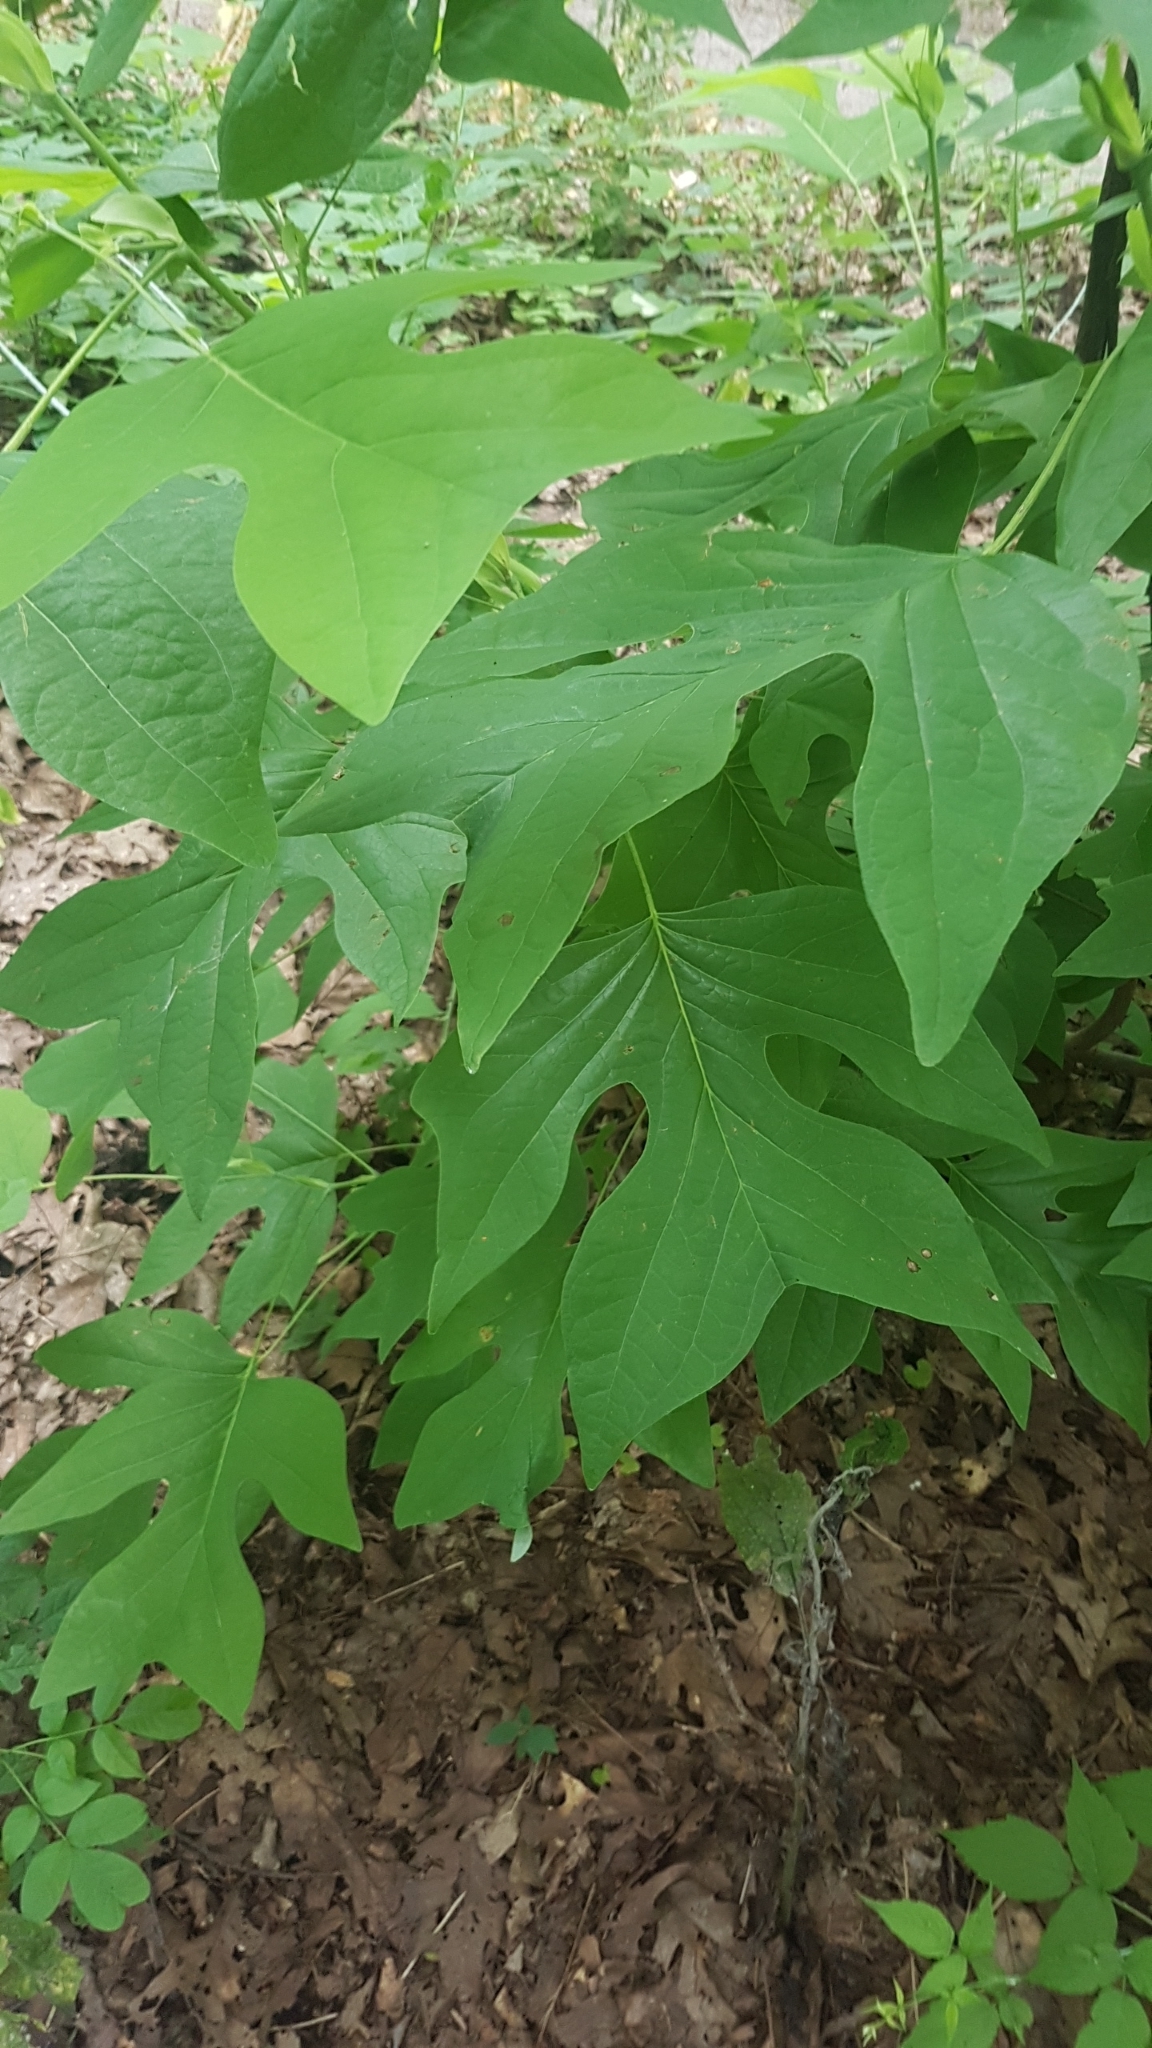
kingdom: Plantae
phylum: Tracheophyta
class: Magnoliopsida
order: Magnoliales
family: Magnoliaceae
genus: Liriodendron
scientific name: Liriodendron tulipifera
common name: Tulip tree
